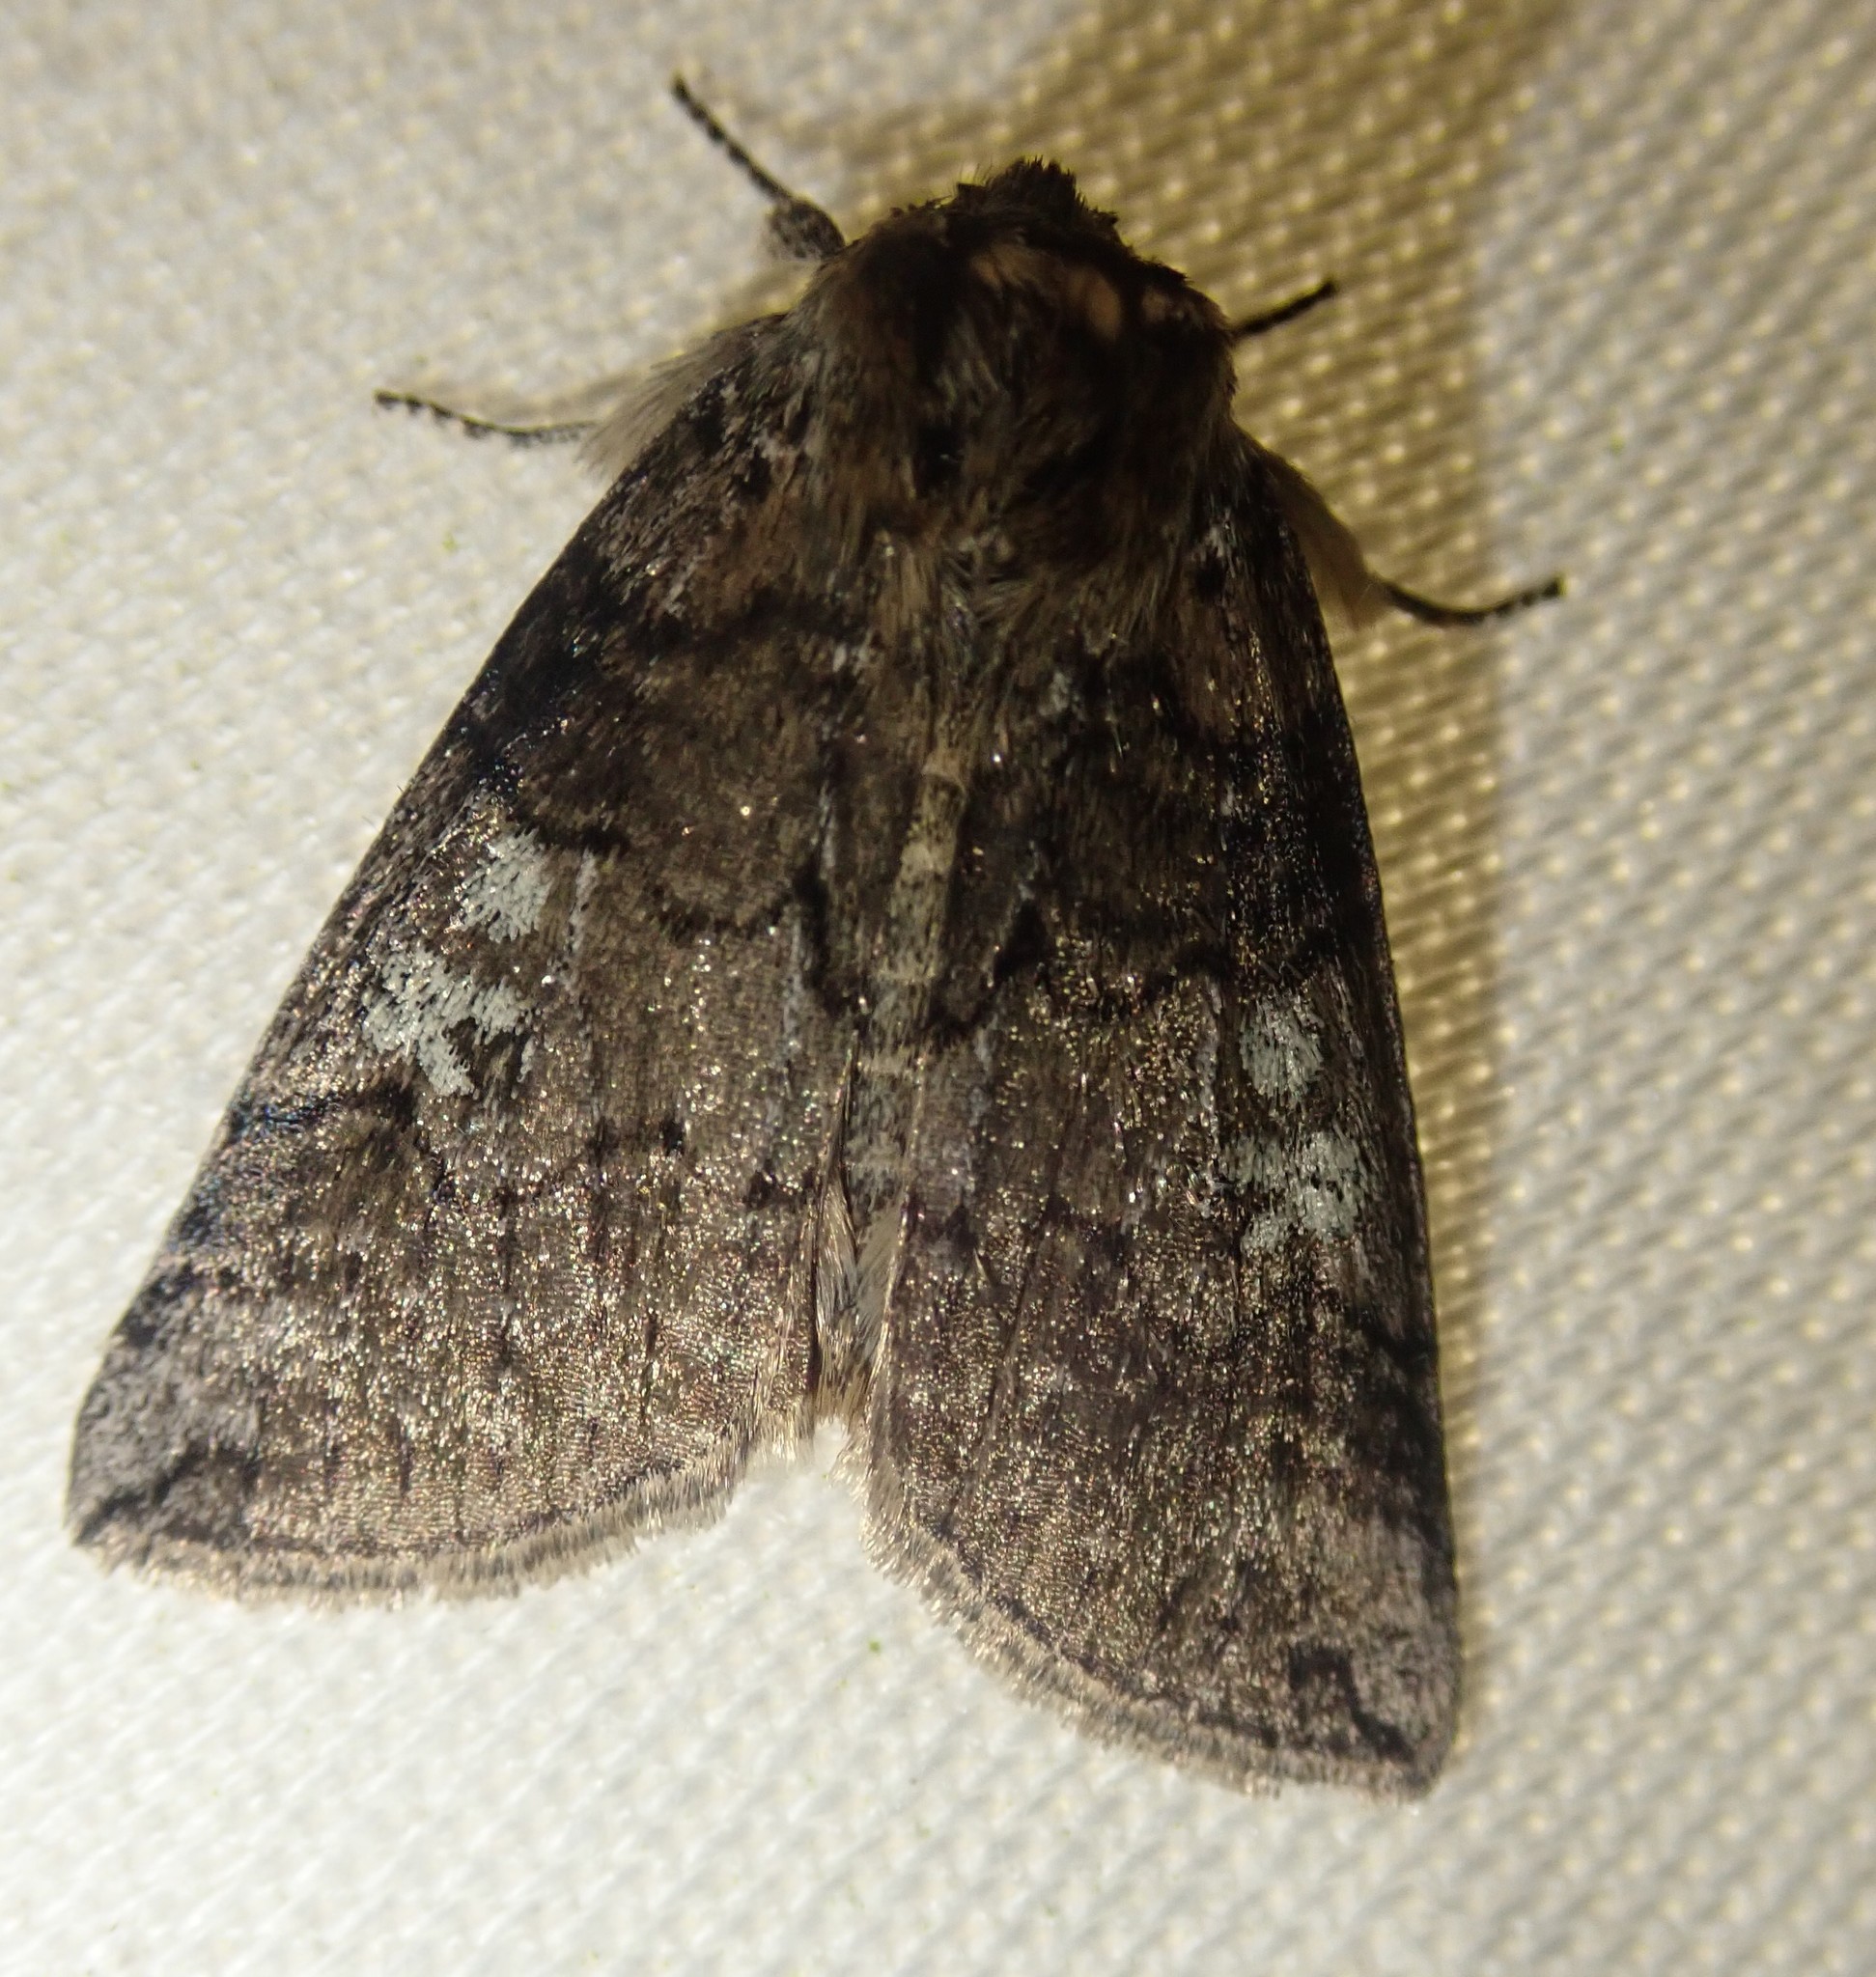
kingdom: Animalia
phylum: Arthropoda
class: Insecta
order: Lepidoptera
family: Drepanidae
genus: Tethea
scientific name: Tethea or
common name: Poplar lutestring
